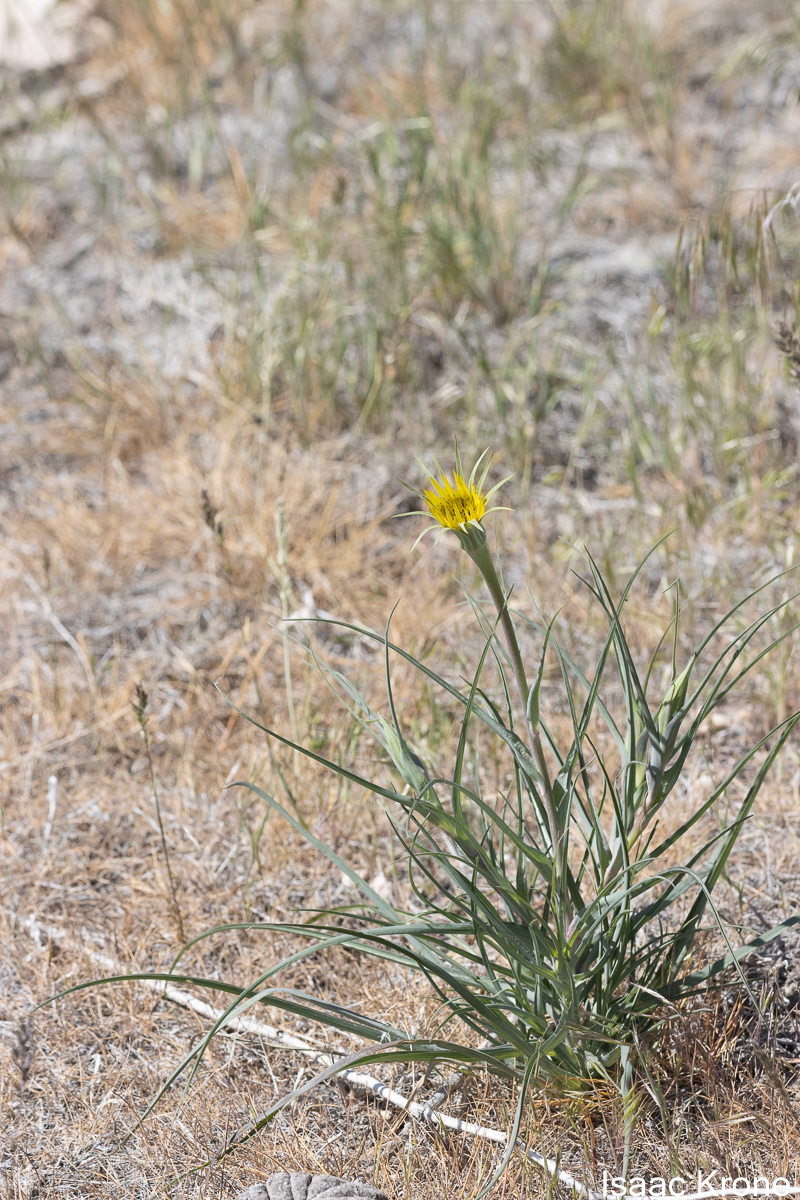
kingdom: Plantae
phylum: Tracheophyta
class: Magnoliopsida
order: Asterales
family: Asteraceae
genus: Tragopogon
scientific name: Tragopogon dubius
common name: Yellow salsify
